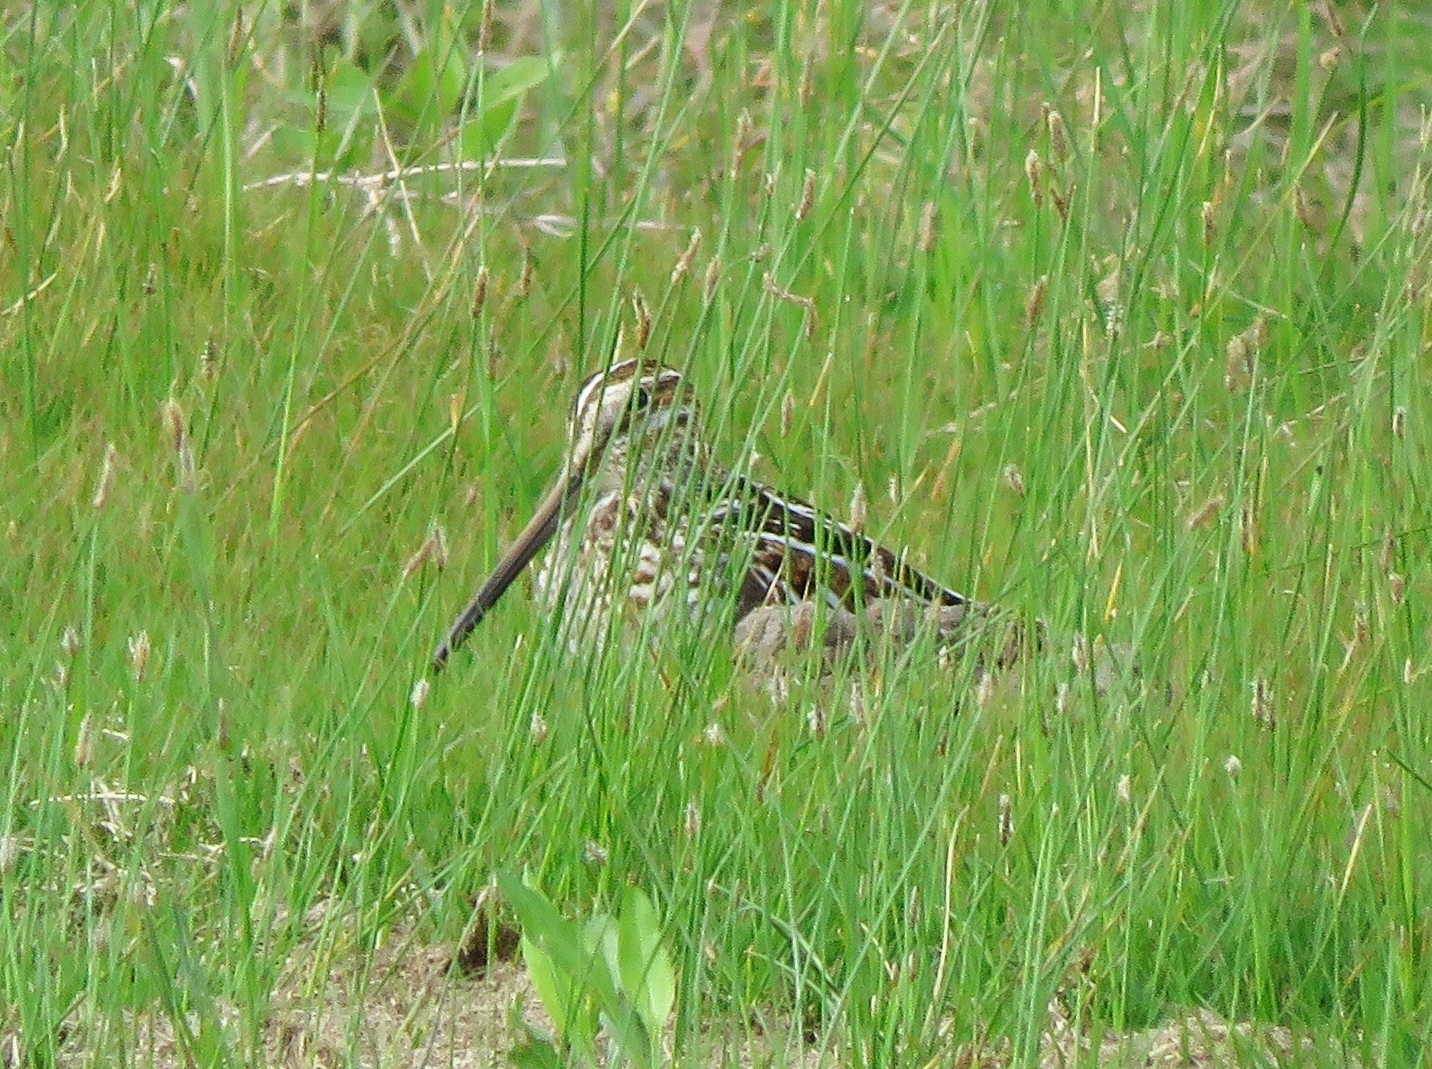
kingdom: Animalia
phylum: Chordata
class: Aves
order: Charadriiformes
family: Scolopacidae
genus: Gallinago
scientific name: Gallinago delicata
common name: Wilson's snipe
